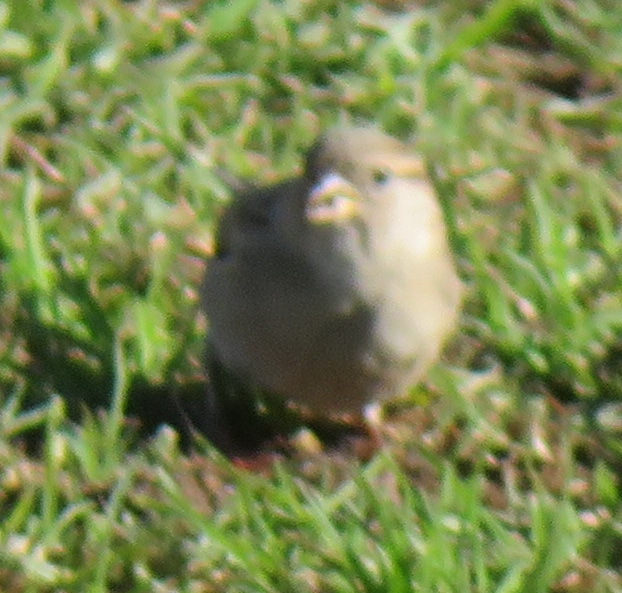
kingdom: Animalia
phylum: Chordata
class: Aves
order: Passeriformes
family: Passeridae
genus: Passer
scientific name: Passer domesticus
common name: House sparrow
